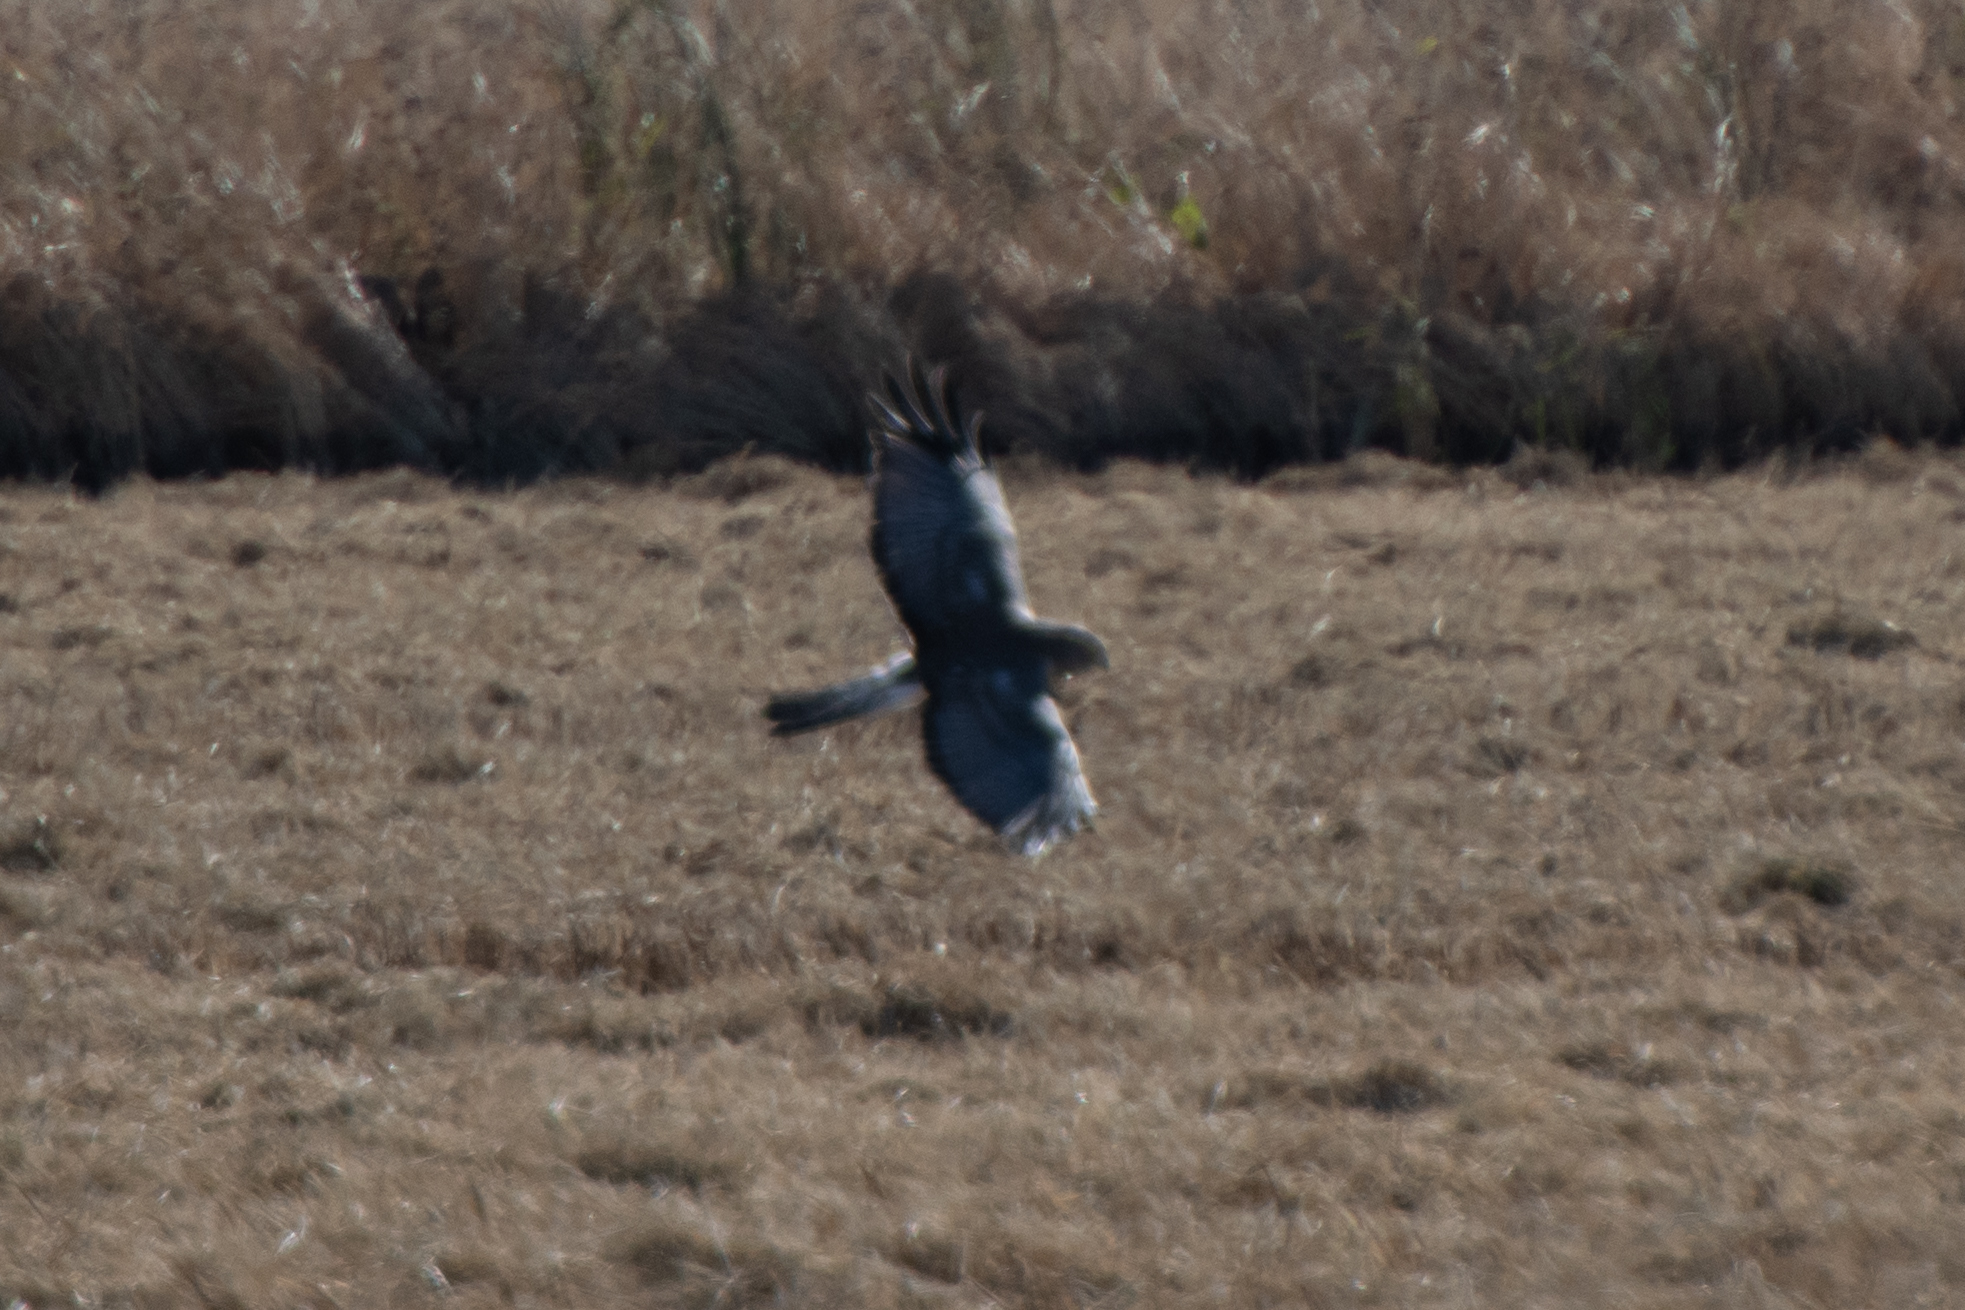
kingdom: Animalia
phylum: Chordata
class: Aves
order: Accipitriformes
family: Accipitridae
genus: Circus
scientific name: Circus cyaneus
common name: Hen harrier
